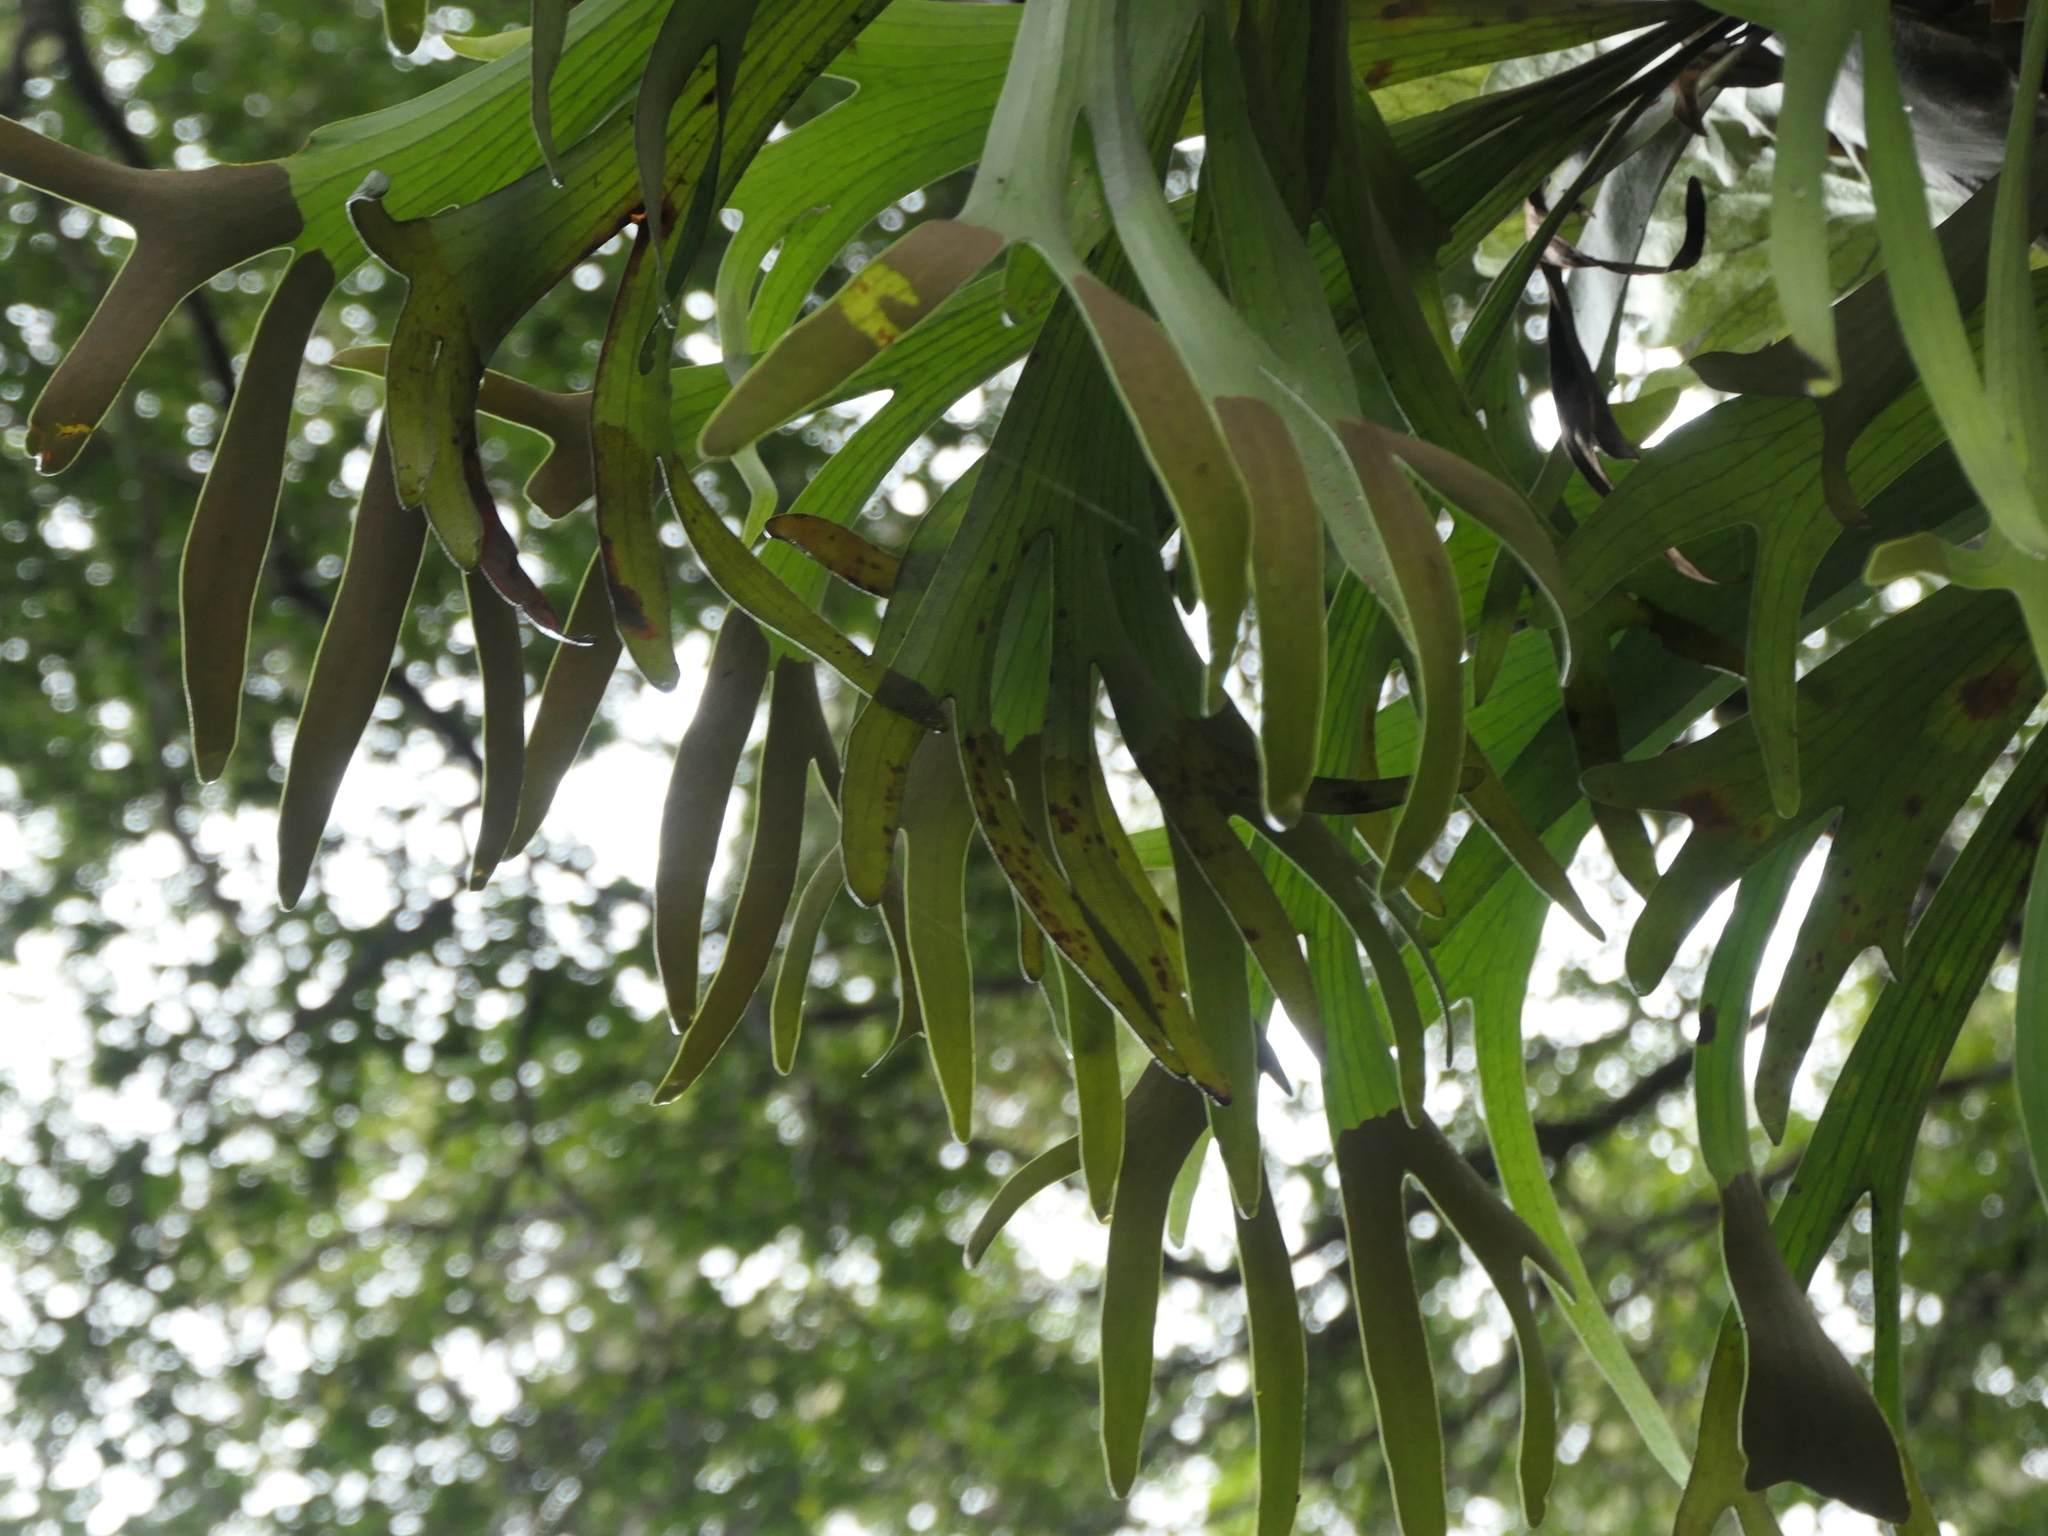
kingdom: Plantae
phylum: Tracheophyta
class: Polypodiopsida
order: Polypodiales
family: Polypodiaceae
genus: Platycerium
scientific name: Platycerium bifurcatum
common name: Elkhorn fern
